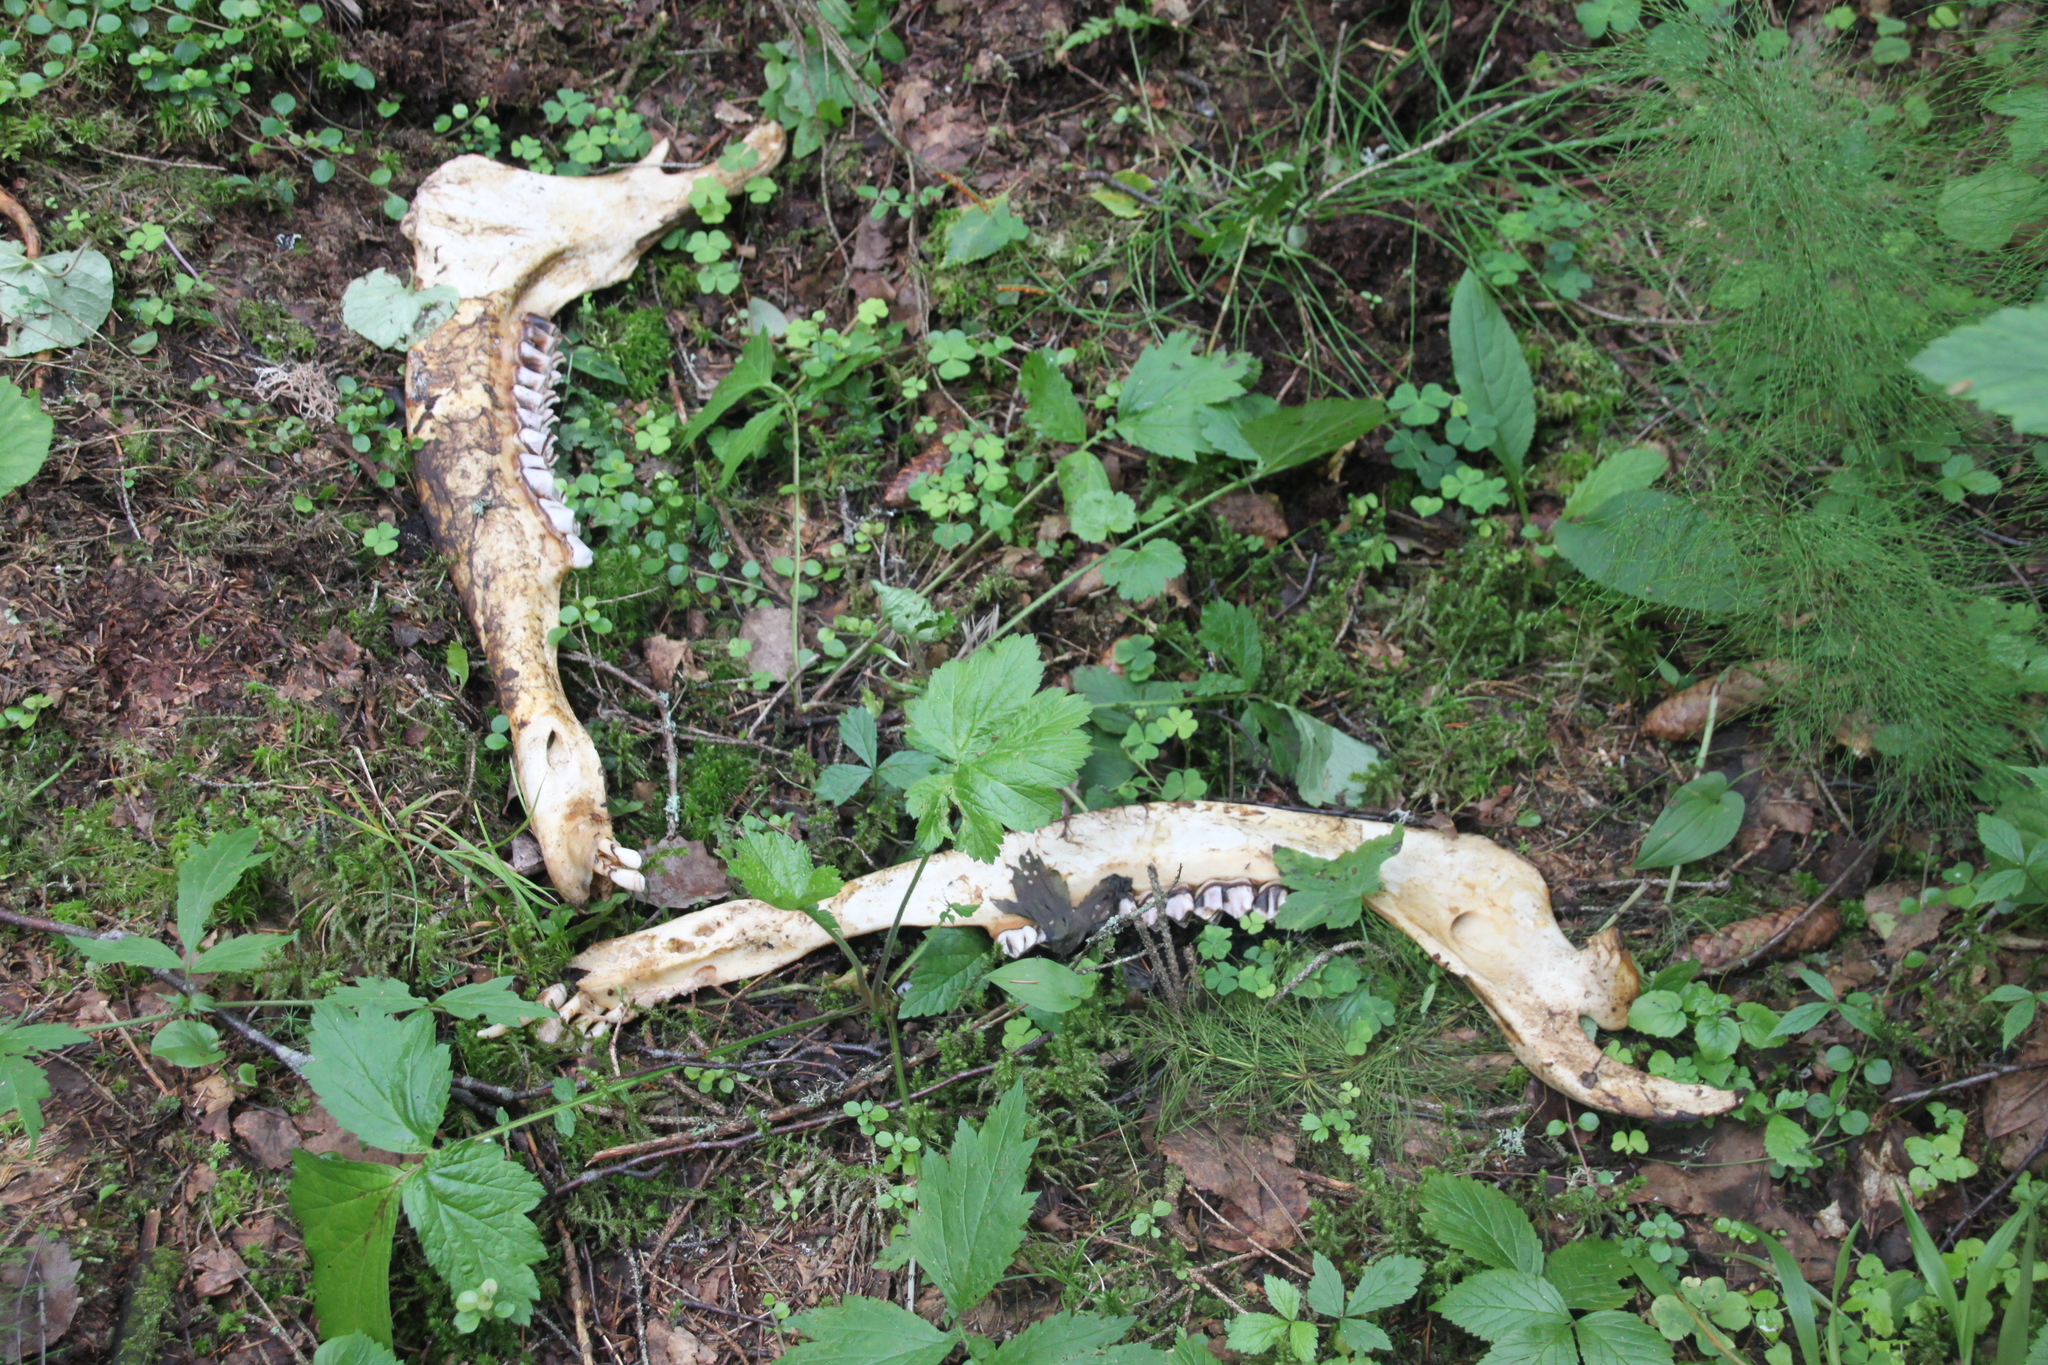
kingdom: Animalia
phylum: Chordata
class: Mammalia
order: Artiodactyla
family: Cervidae
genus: Alces
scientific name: Alces alces
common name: Moose
